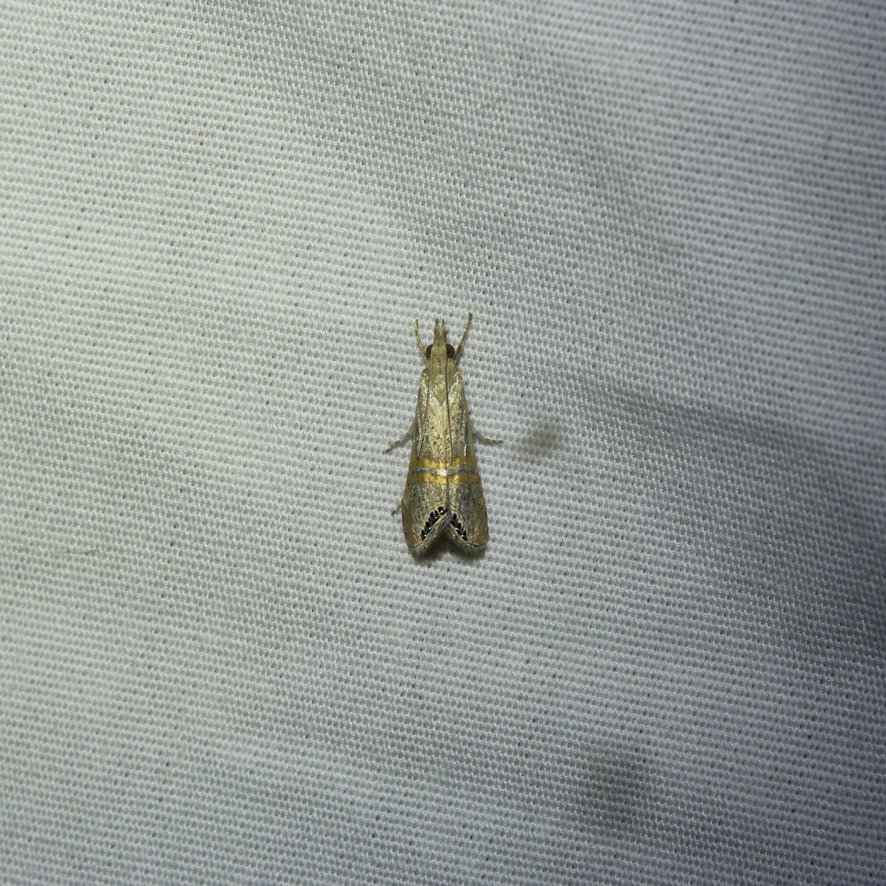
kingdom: Animalia
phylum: Arthropoda
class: Insecta
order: Lepidoptera
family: Crambidae
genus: Euchromius
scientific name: Euchromius ocellea
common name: Necklace veneer moth
